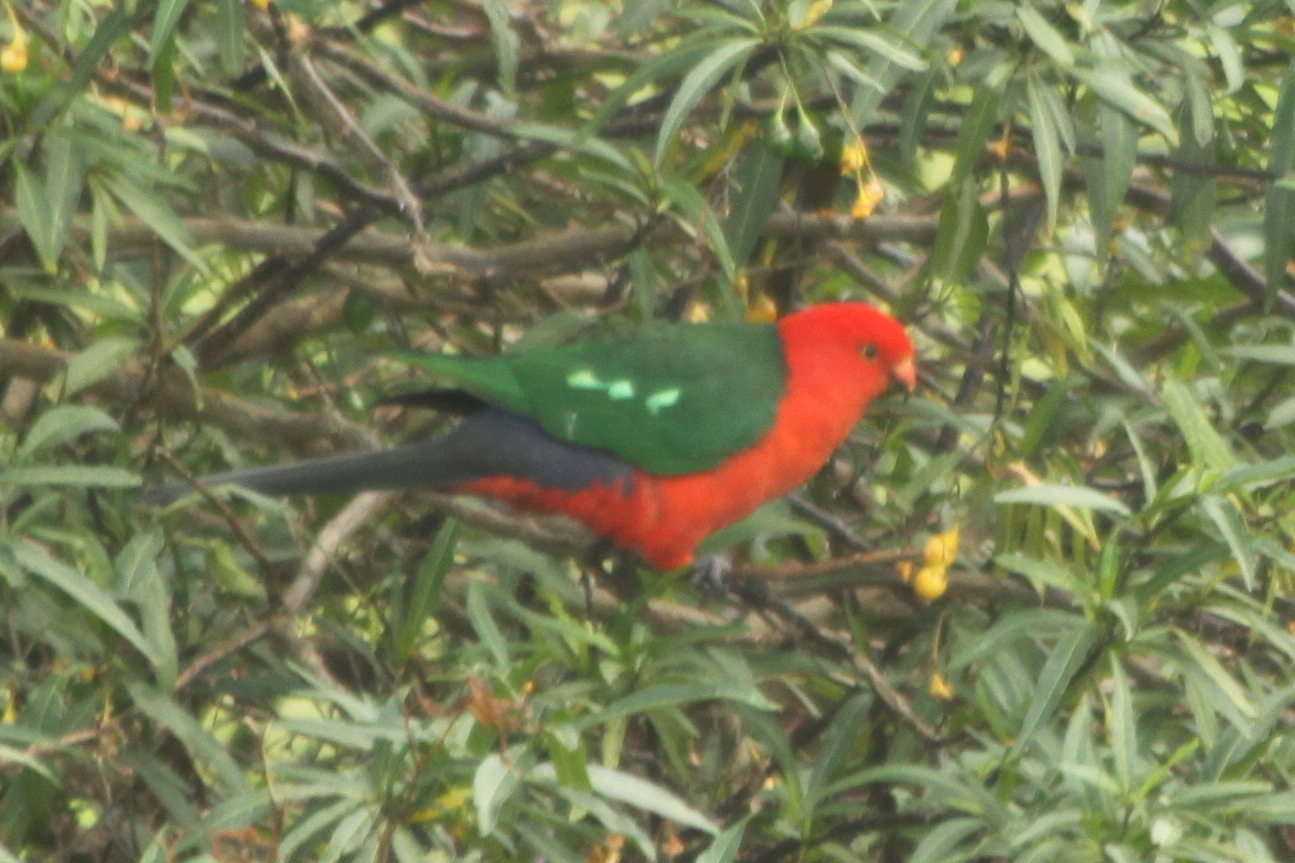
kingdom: Animalia
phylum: Chordata
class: Aves
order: Psittaciformes
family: Psittacidae
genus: Alisterus
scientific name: Alisterus scapularis
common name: Australian king parrot
